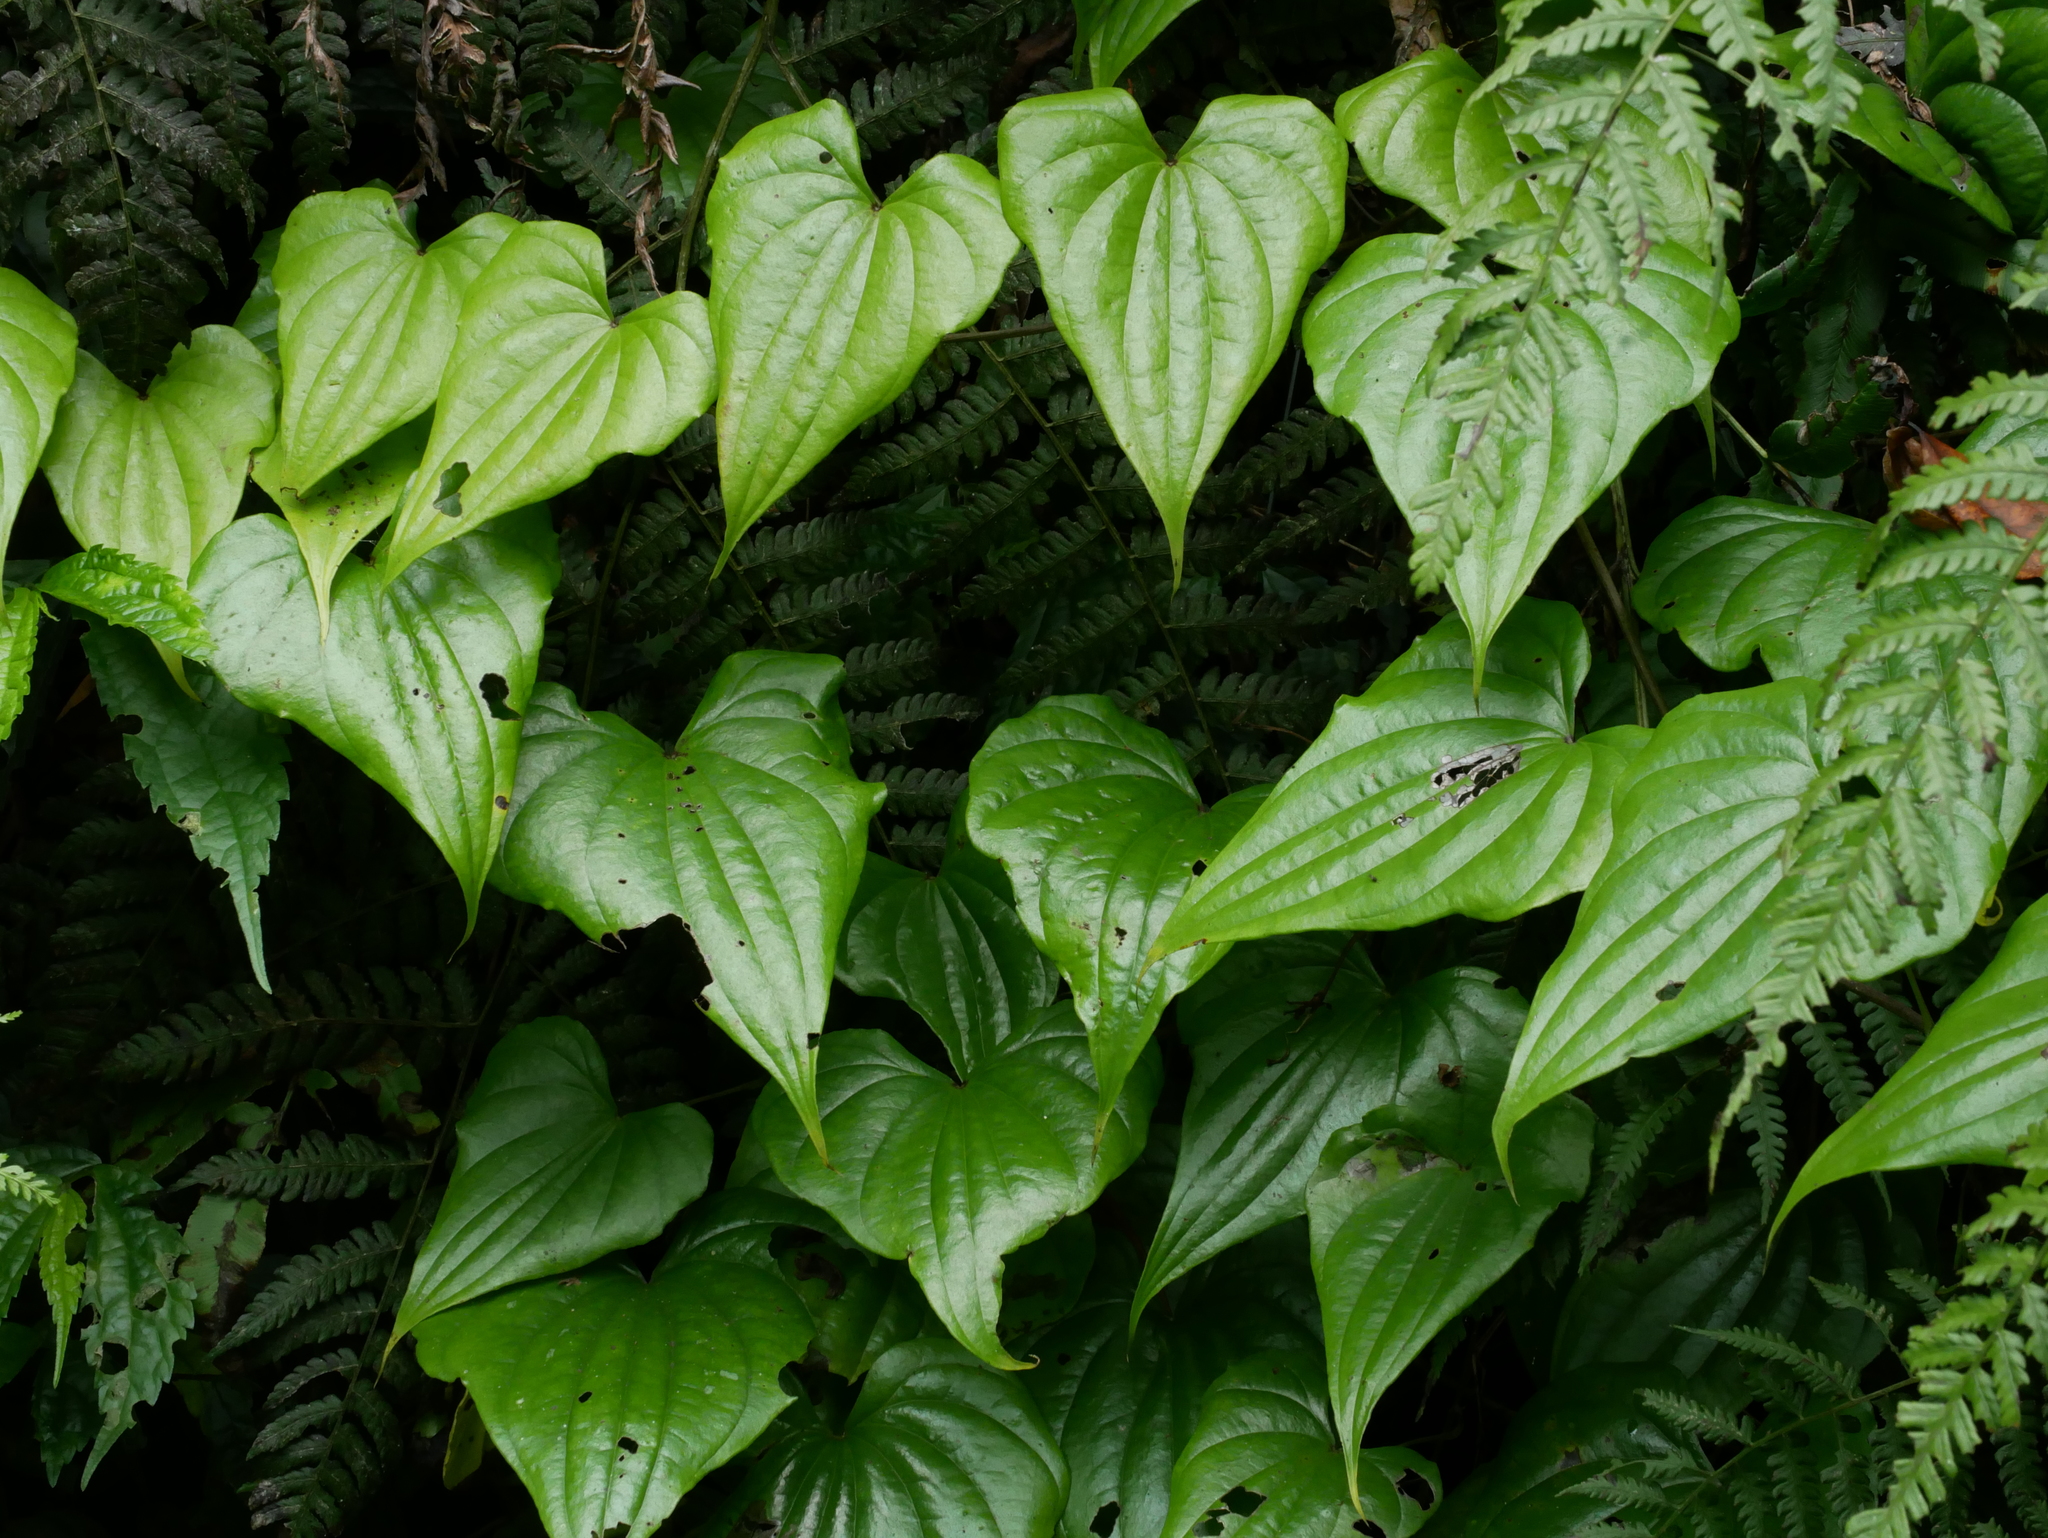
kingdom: Plantae
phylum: Tracheophyta
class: Liliopsida
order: Dioscoreales
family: Dioscoreaceae
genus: Dioscorea
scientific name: Dioscorea collettii
